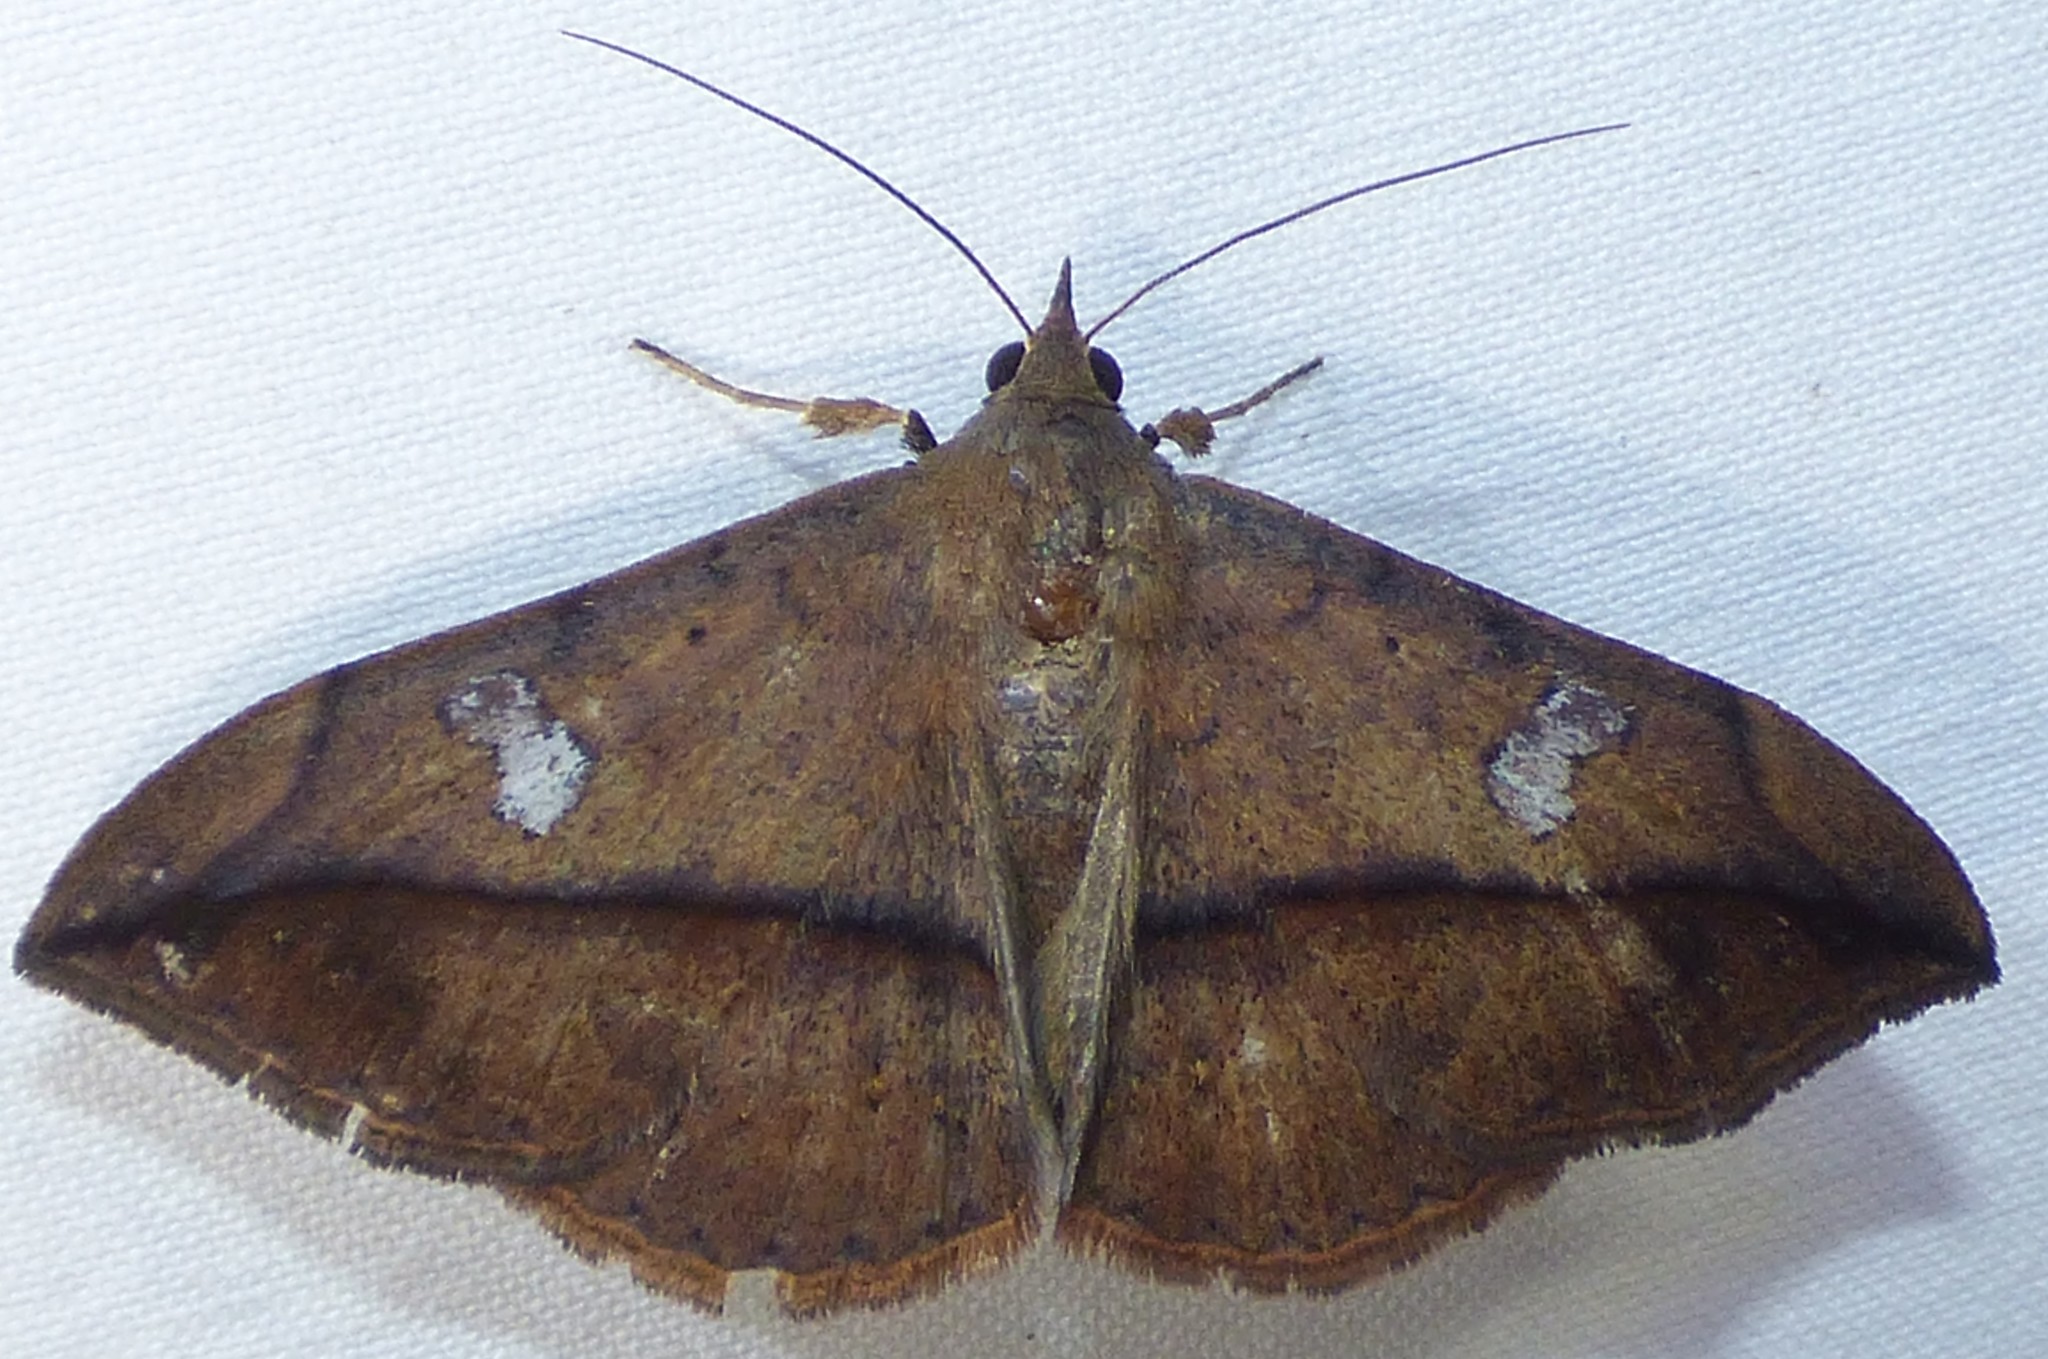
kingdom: Animalia
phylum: Arthropoda
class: Insecta
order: Lepidoptera
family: Erebidae
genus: Anticarsia
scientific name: Anticarsia gemmatalis
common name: Cutworm moth
